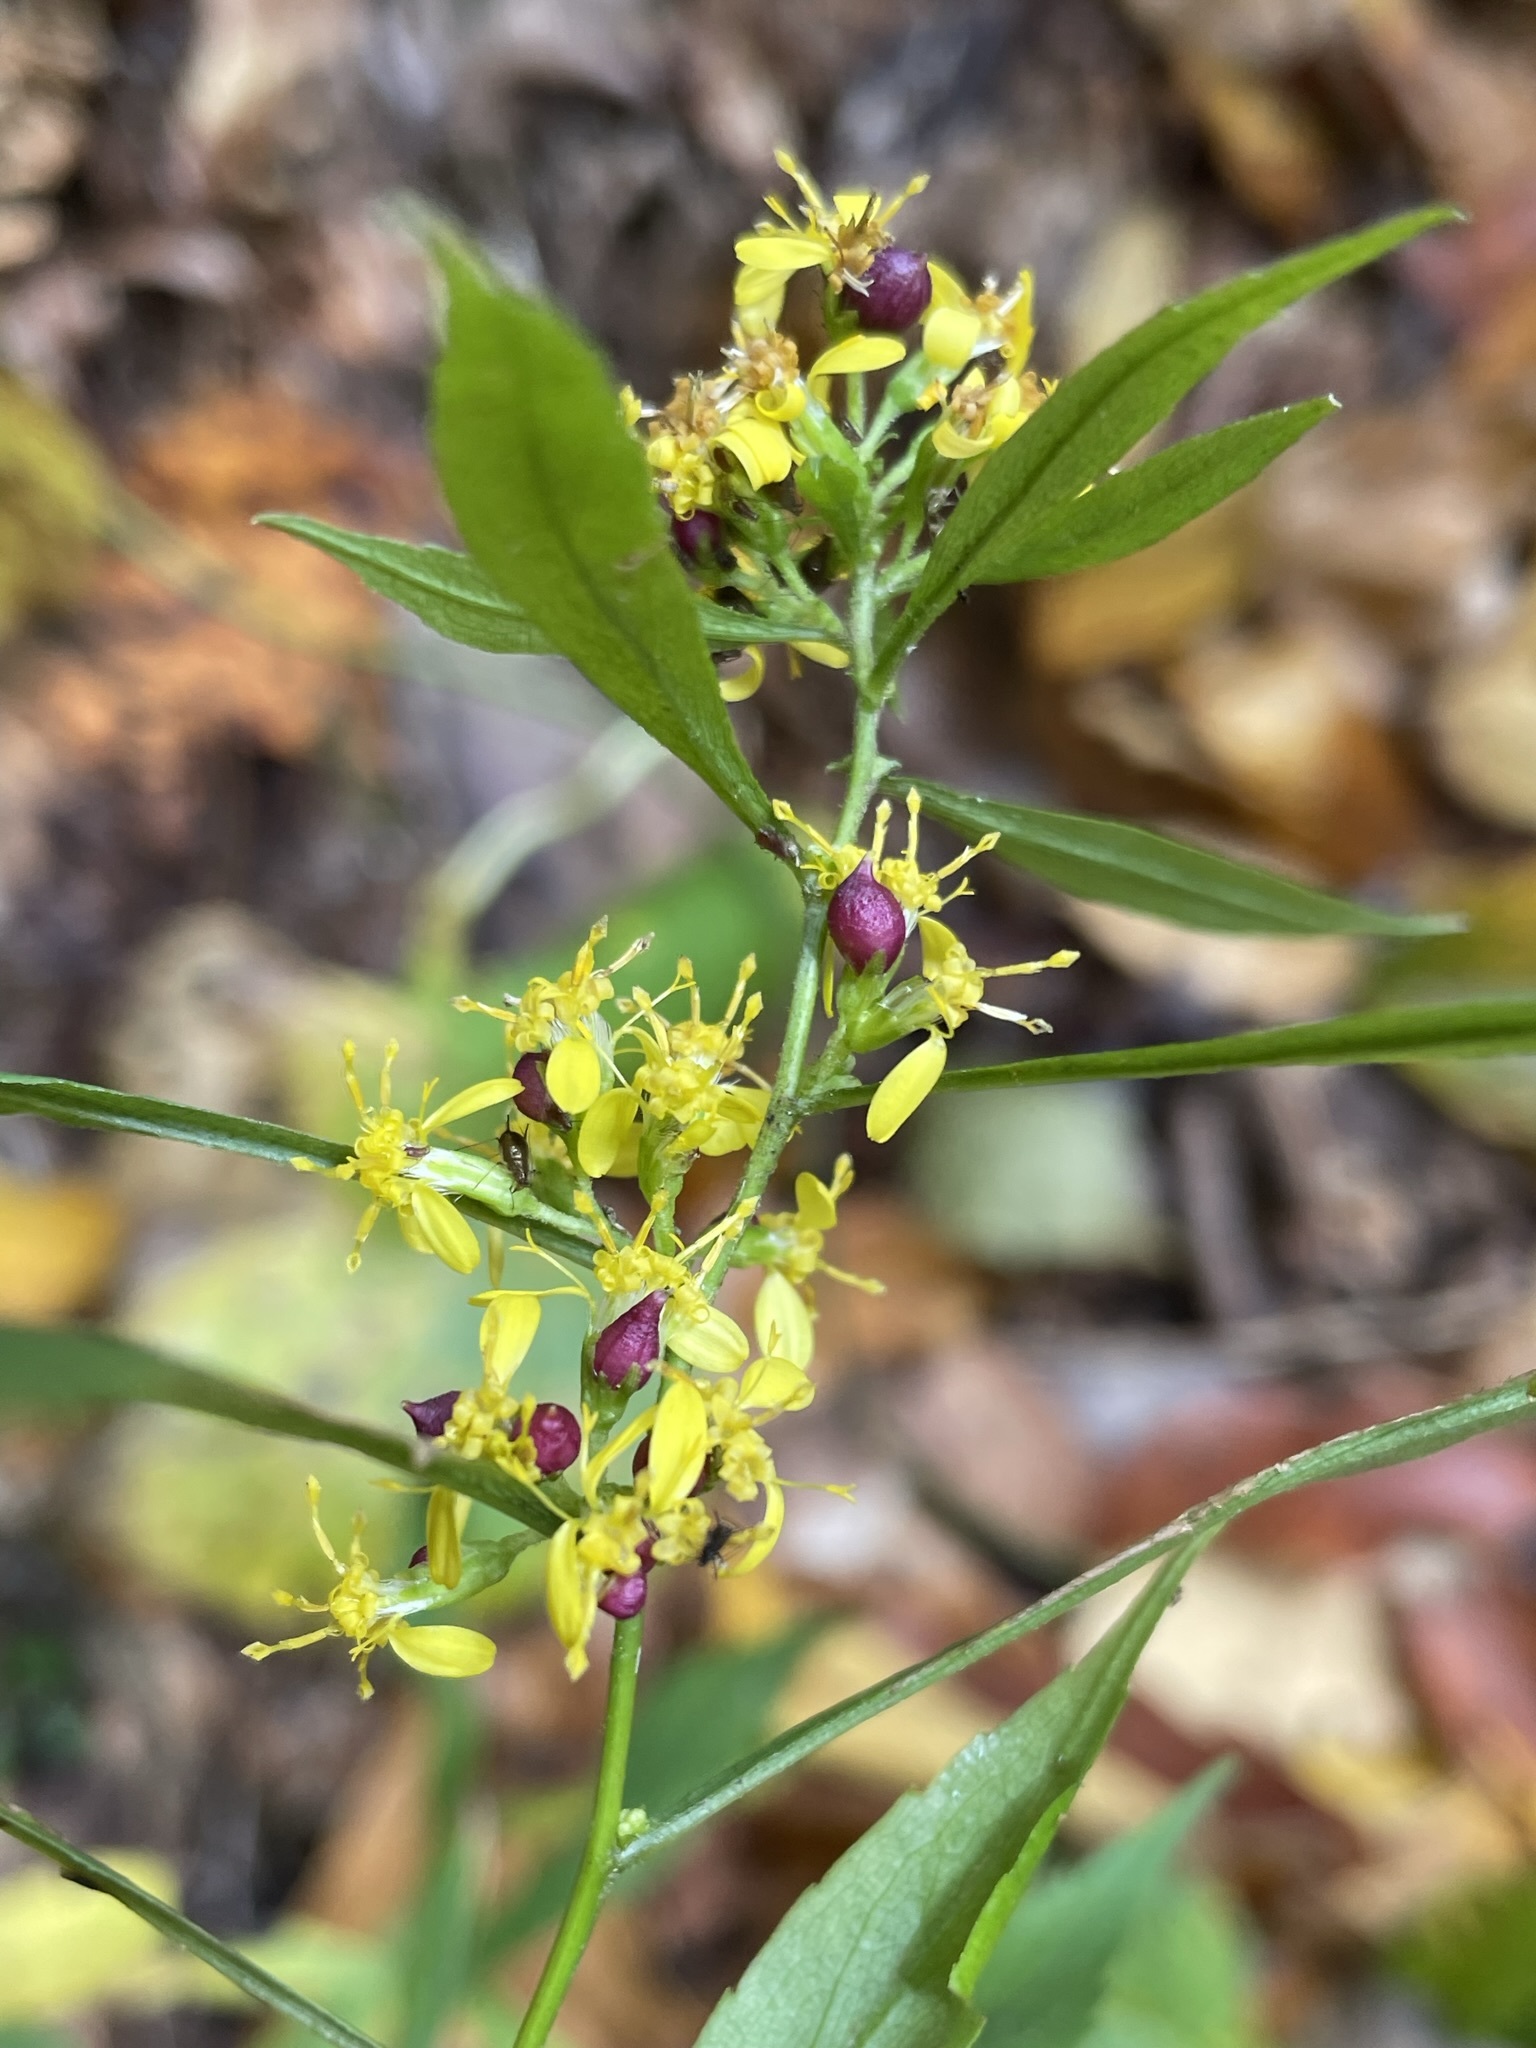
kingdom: Animalia
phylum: Arthropoda
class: Insecta
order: Diptera
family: Cecidomyiidae
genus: Schizomyia
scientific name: Schizomyia racemicola
